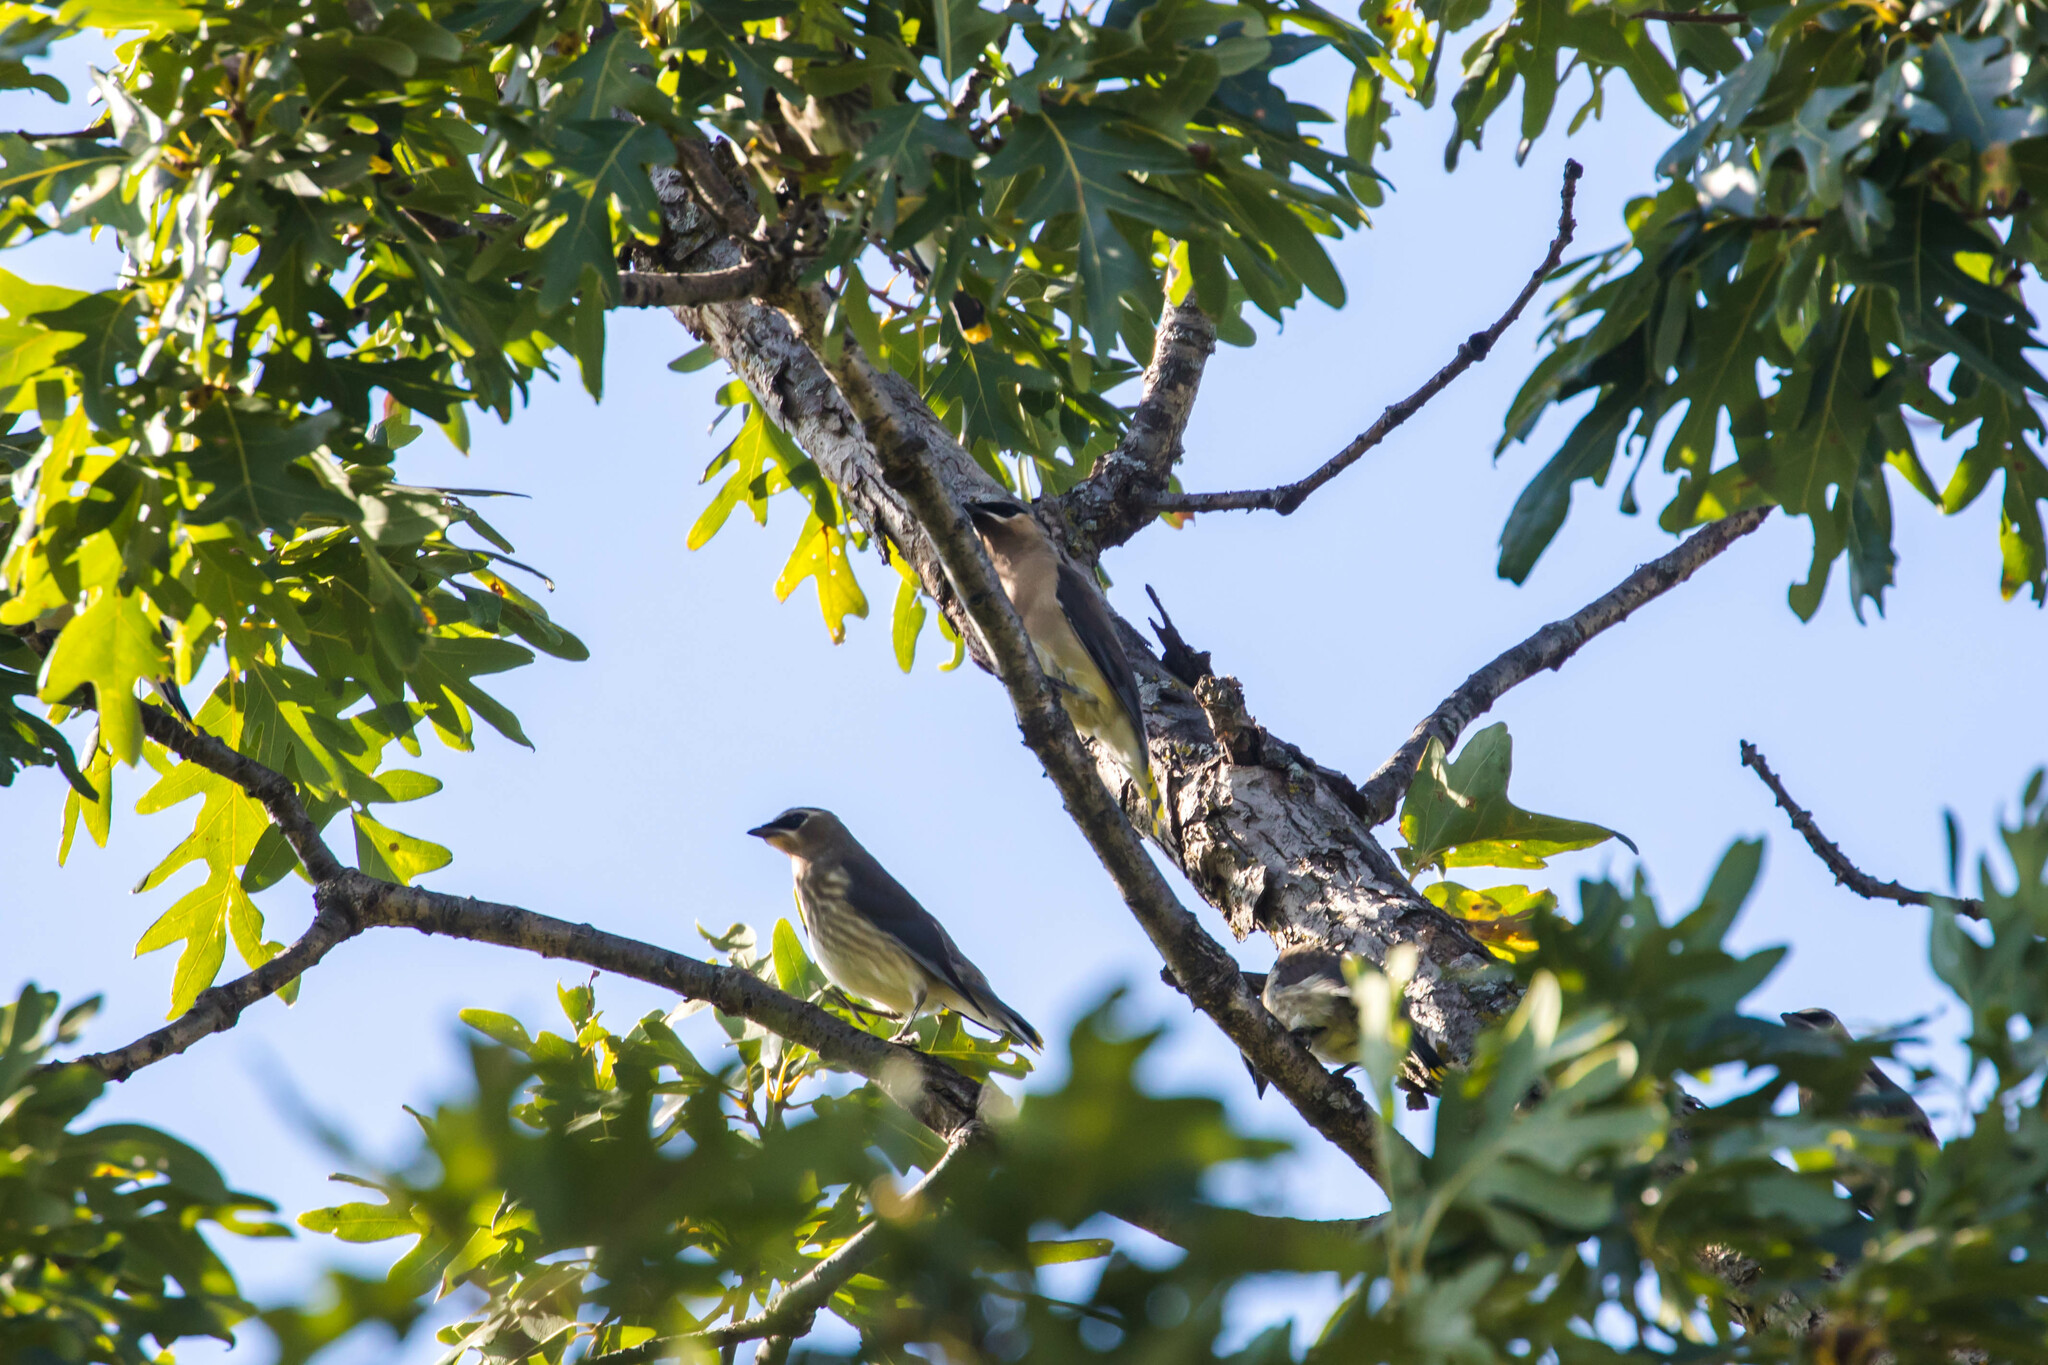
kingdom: Animalia
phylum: Chordata
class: Aves
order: Passeriformes
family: Bombycillidae
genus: Bombycilla
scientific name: Bombycilla cedrorum
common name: Cedar waxwing
